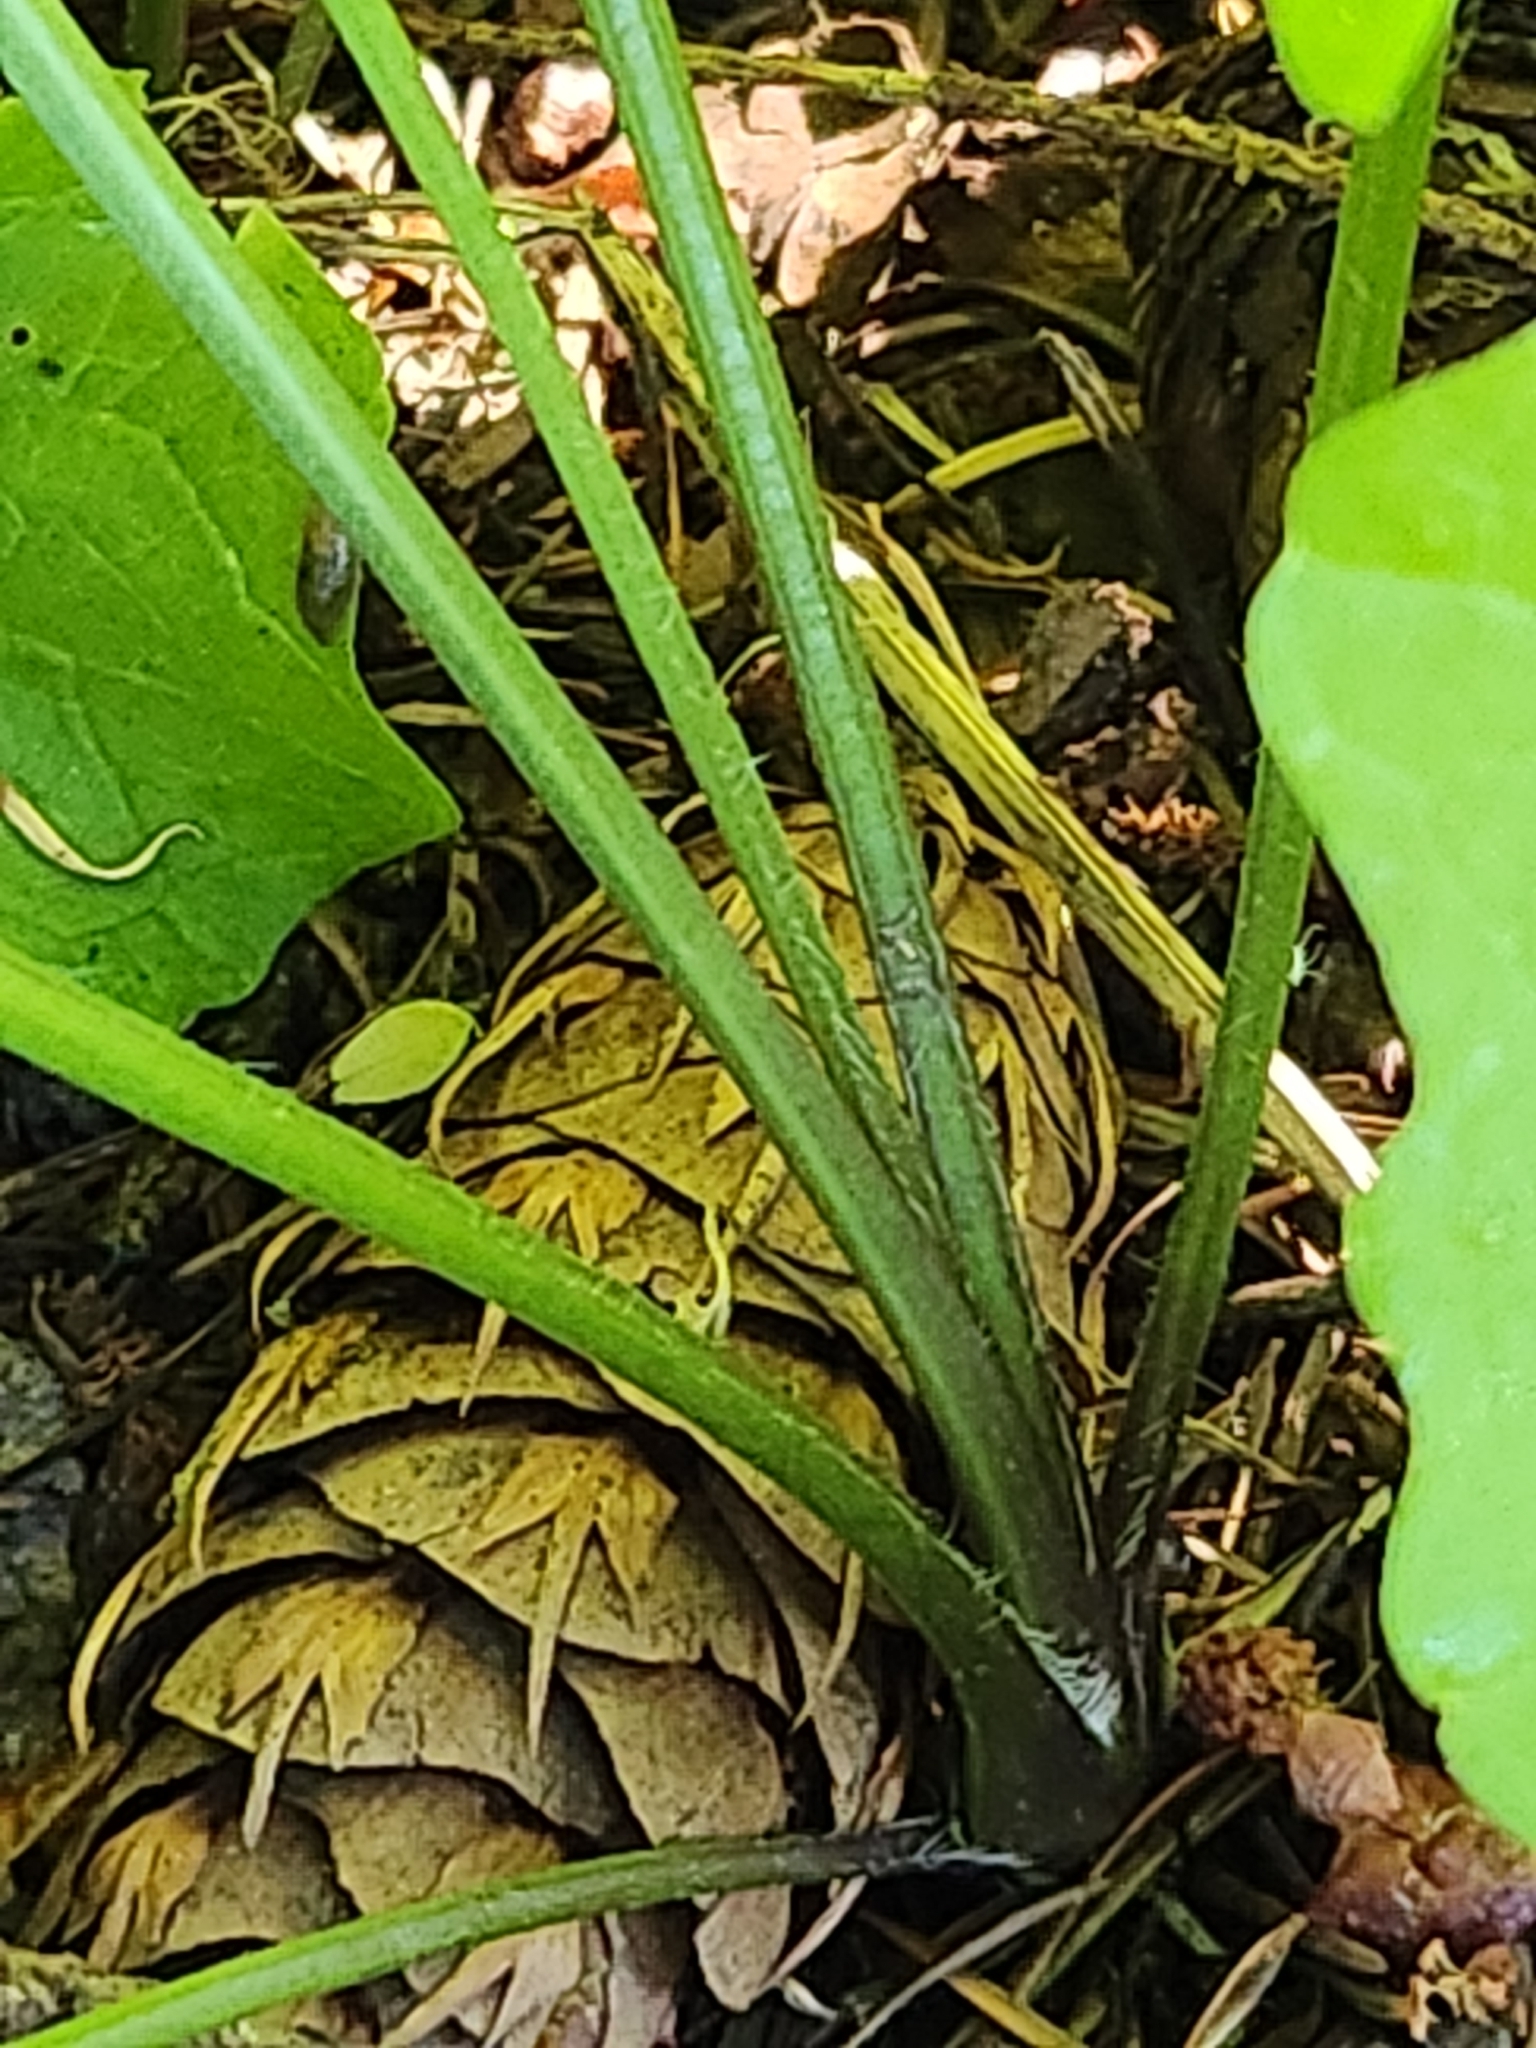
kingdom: Plantae
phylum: Tracheophyta
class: Magnoliopsida
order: Brassicales
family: Brassicaceae
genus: Alliaria
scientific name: Alliaria petiolata
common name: Garlic mustard
